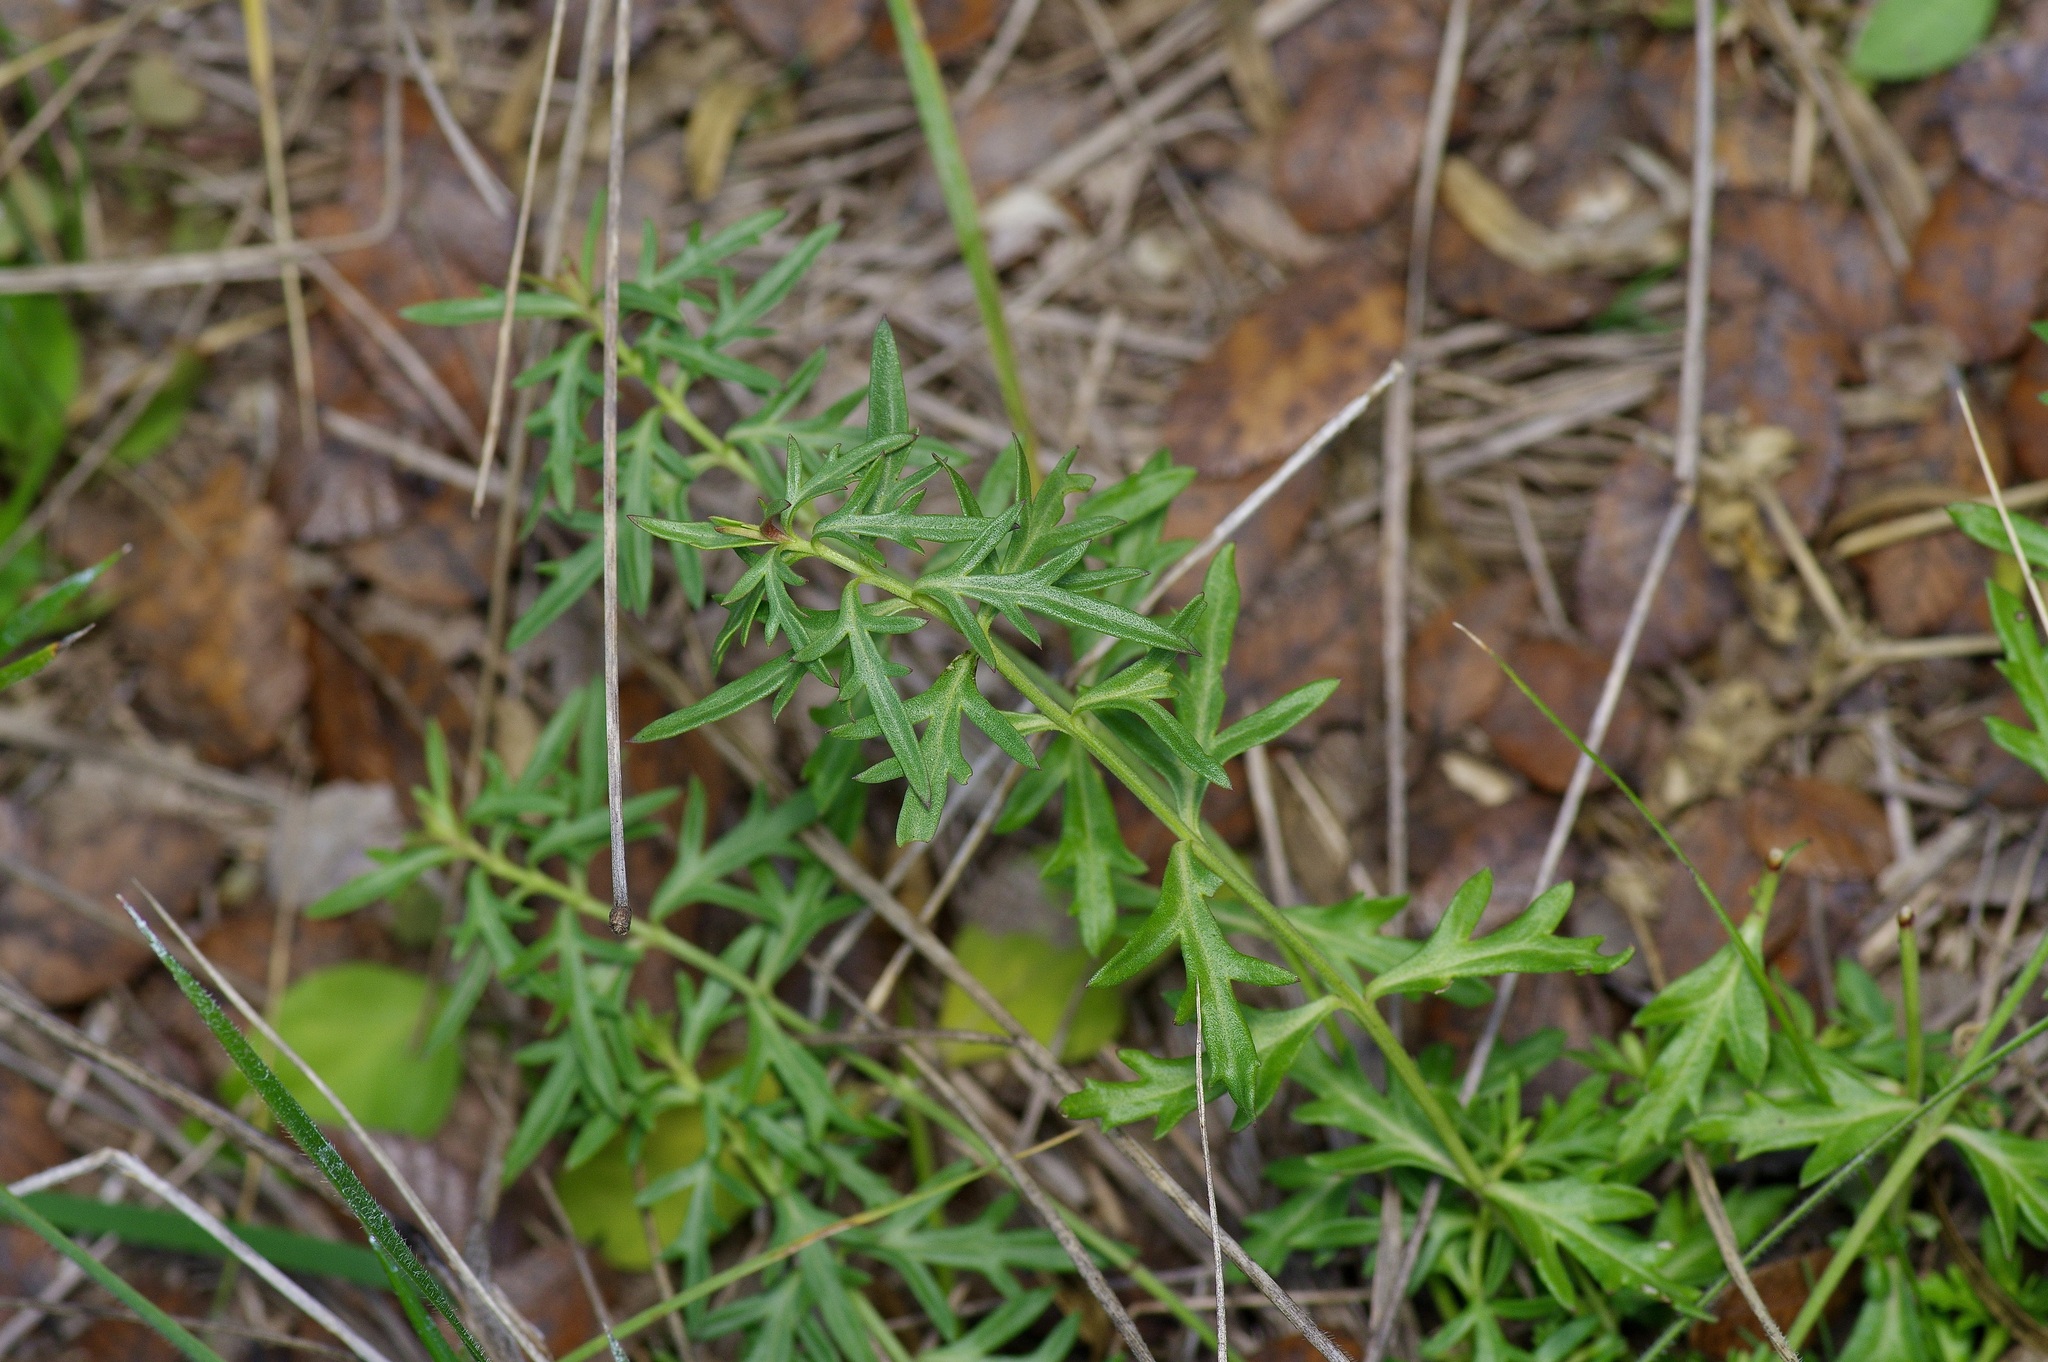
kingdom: Plantae
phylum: Tracheophyta
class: Magnoliopsida
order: Lamiales
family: Oleaceae
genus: Menodora
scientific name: Menodora heterophylla
